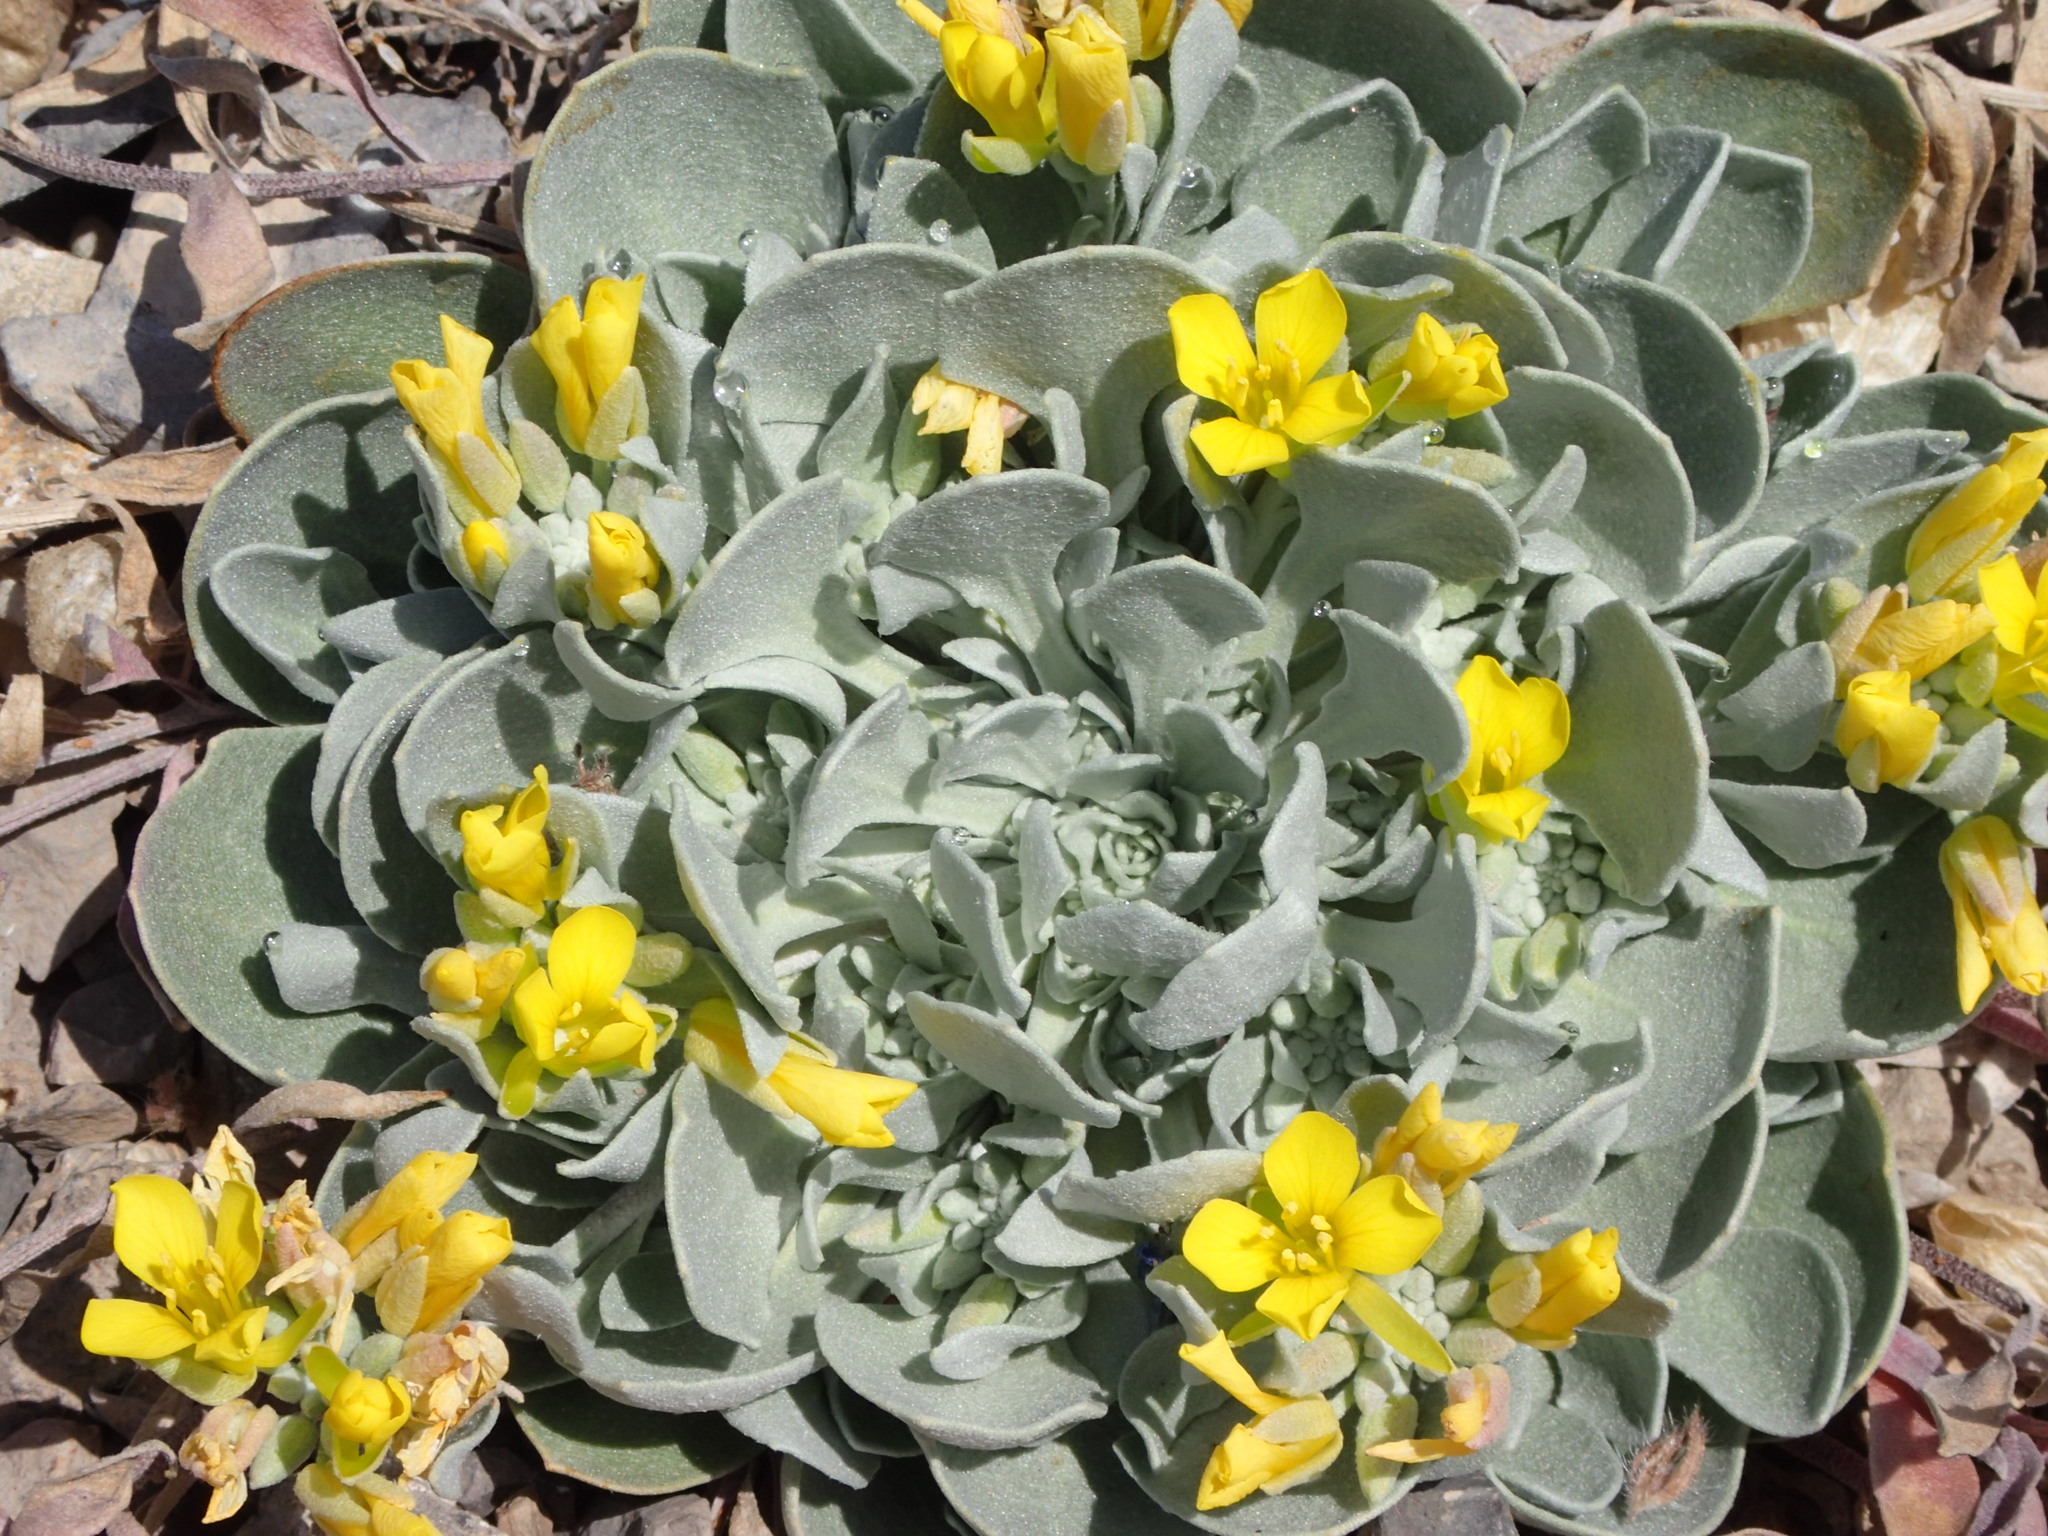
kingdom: Plantae
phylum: Tracheophyta
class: Magnoliopsida
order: Brassicales
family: Brassicaceae
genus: Physaria
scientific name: Physaria didymocarpa
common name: Common twinpod
